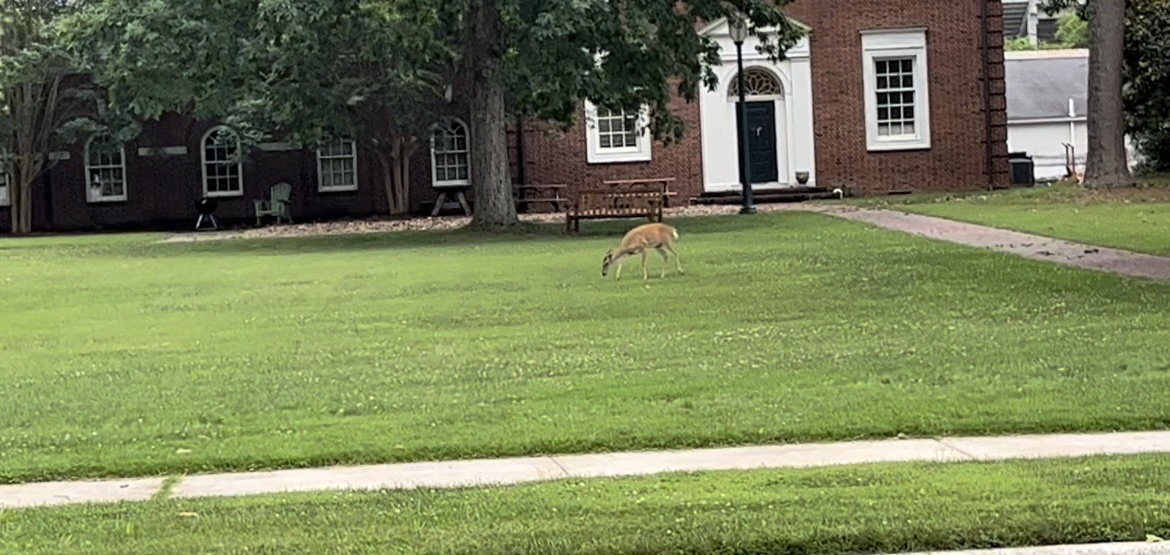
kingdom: Animalia
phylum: Chordata
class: Mammalia
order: Artiodactyla
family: Cervidae
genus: Odocoileus
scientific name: Odocoileus virginianus
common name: White-tailed deer
